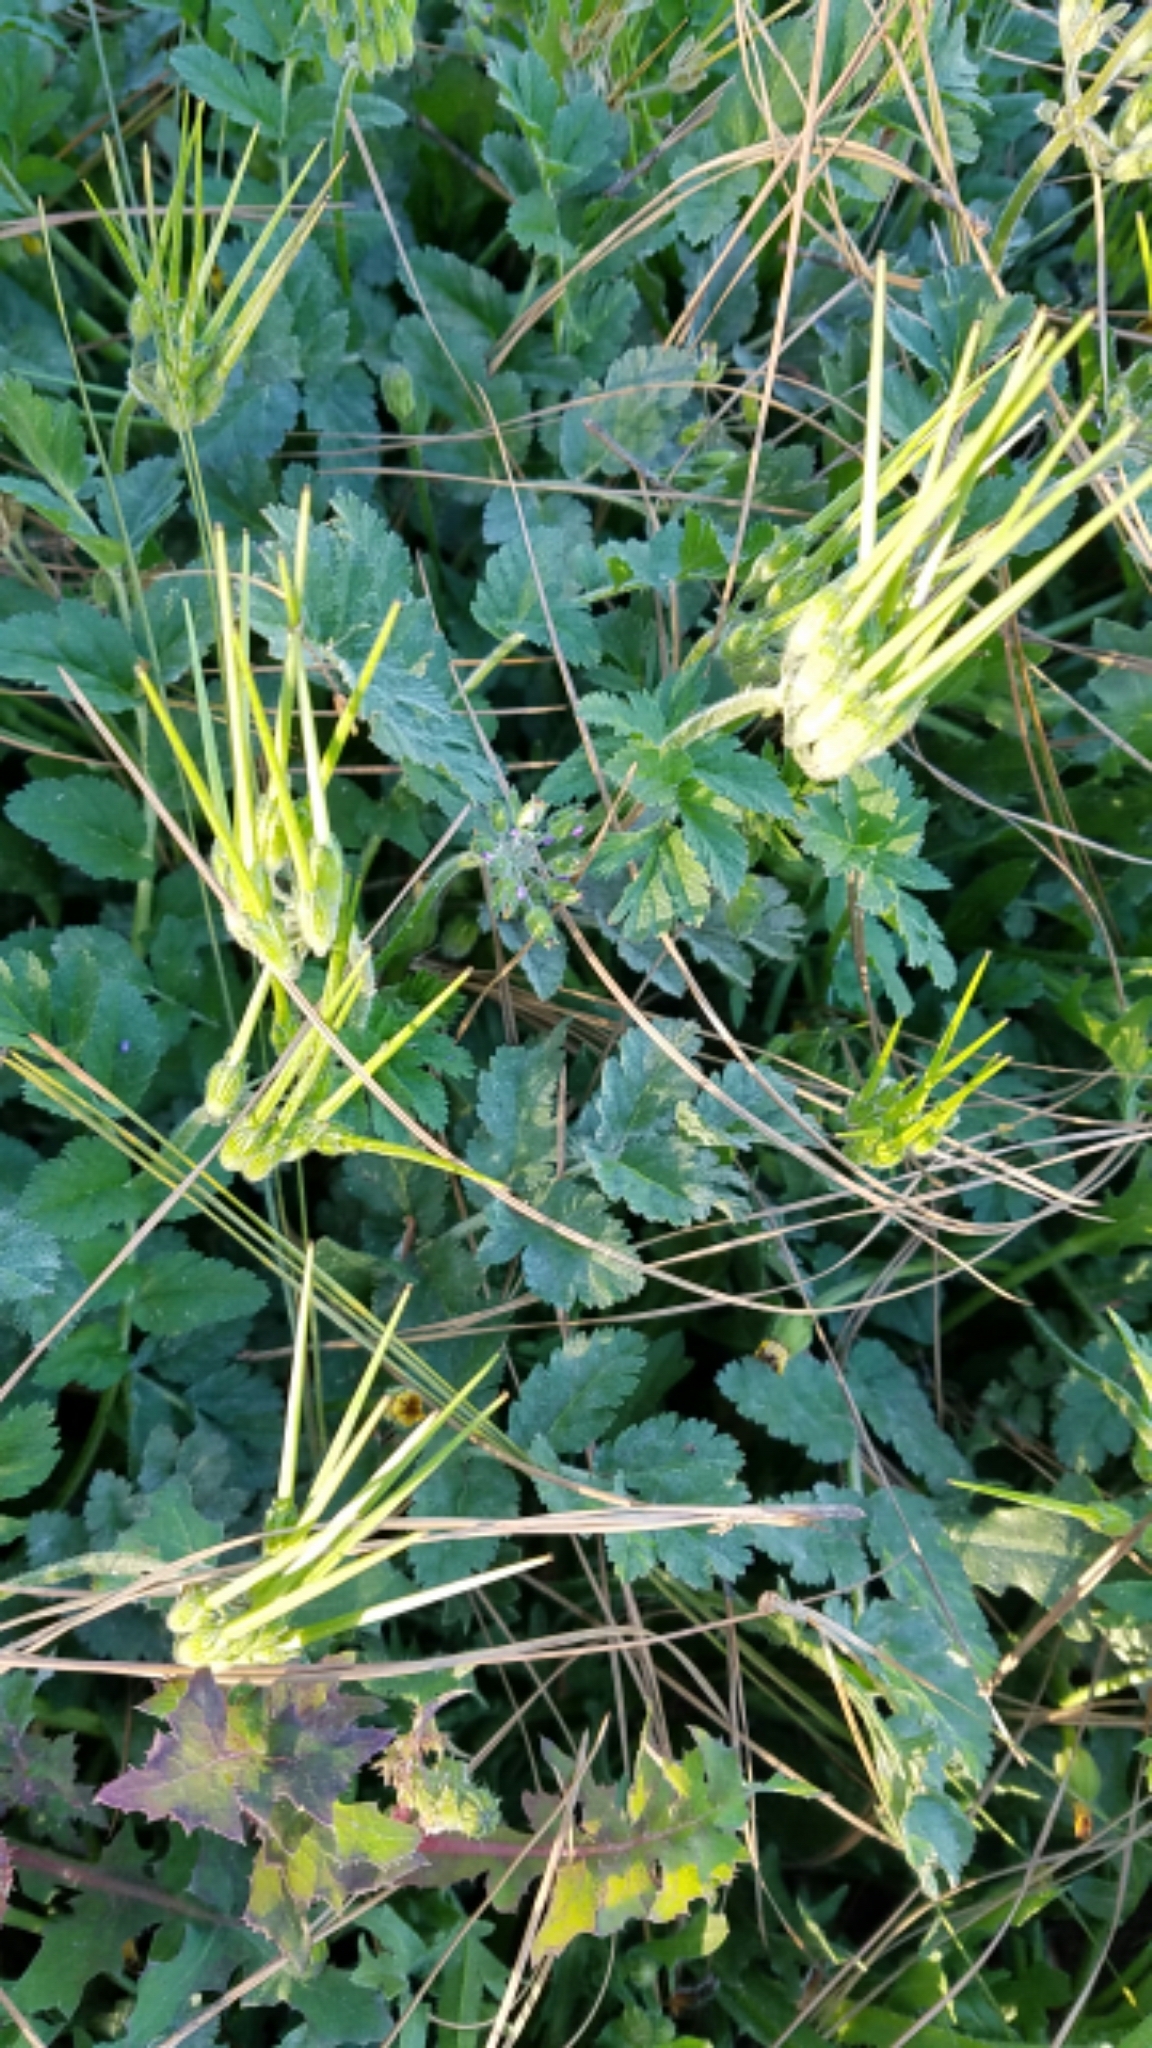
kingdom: Plantae
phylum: Tracheophyta
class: Magnoliopsida
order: Geraniales
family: Geraniaceae
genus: Erodium
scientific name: Erodium moschatum
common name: Musk stork's-bill
